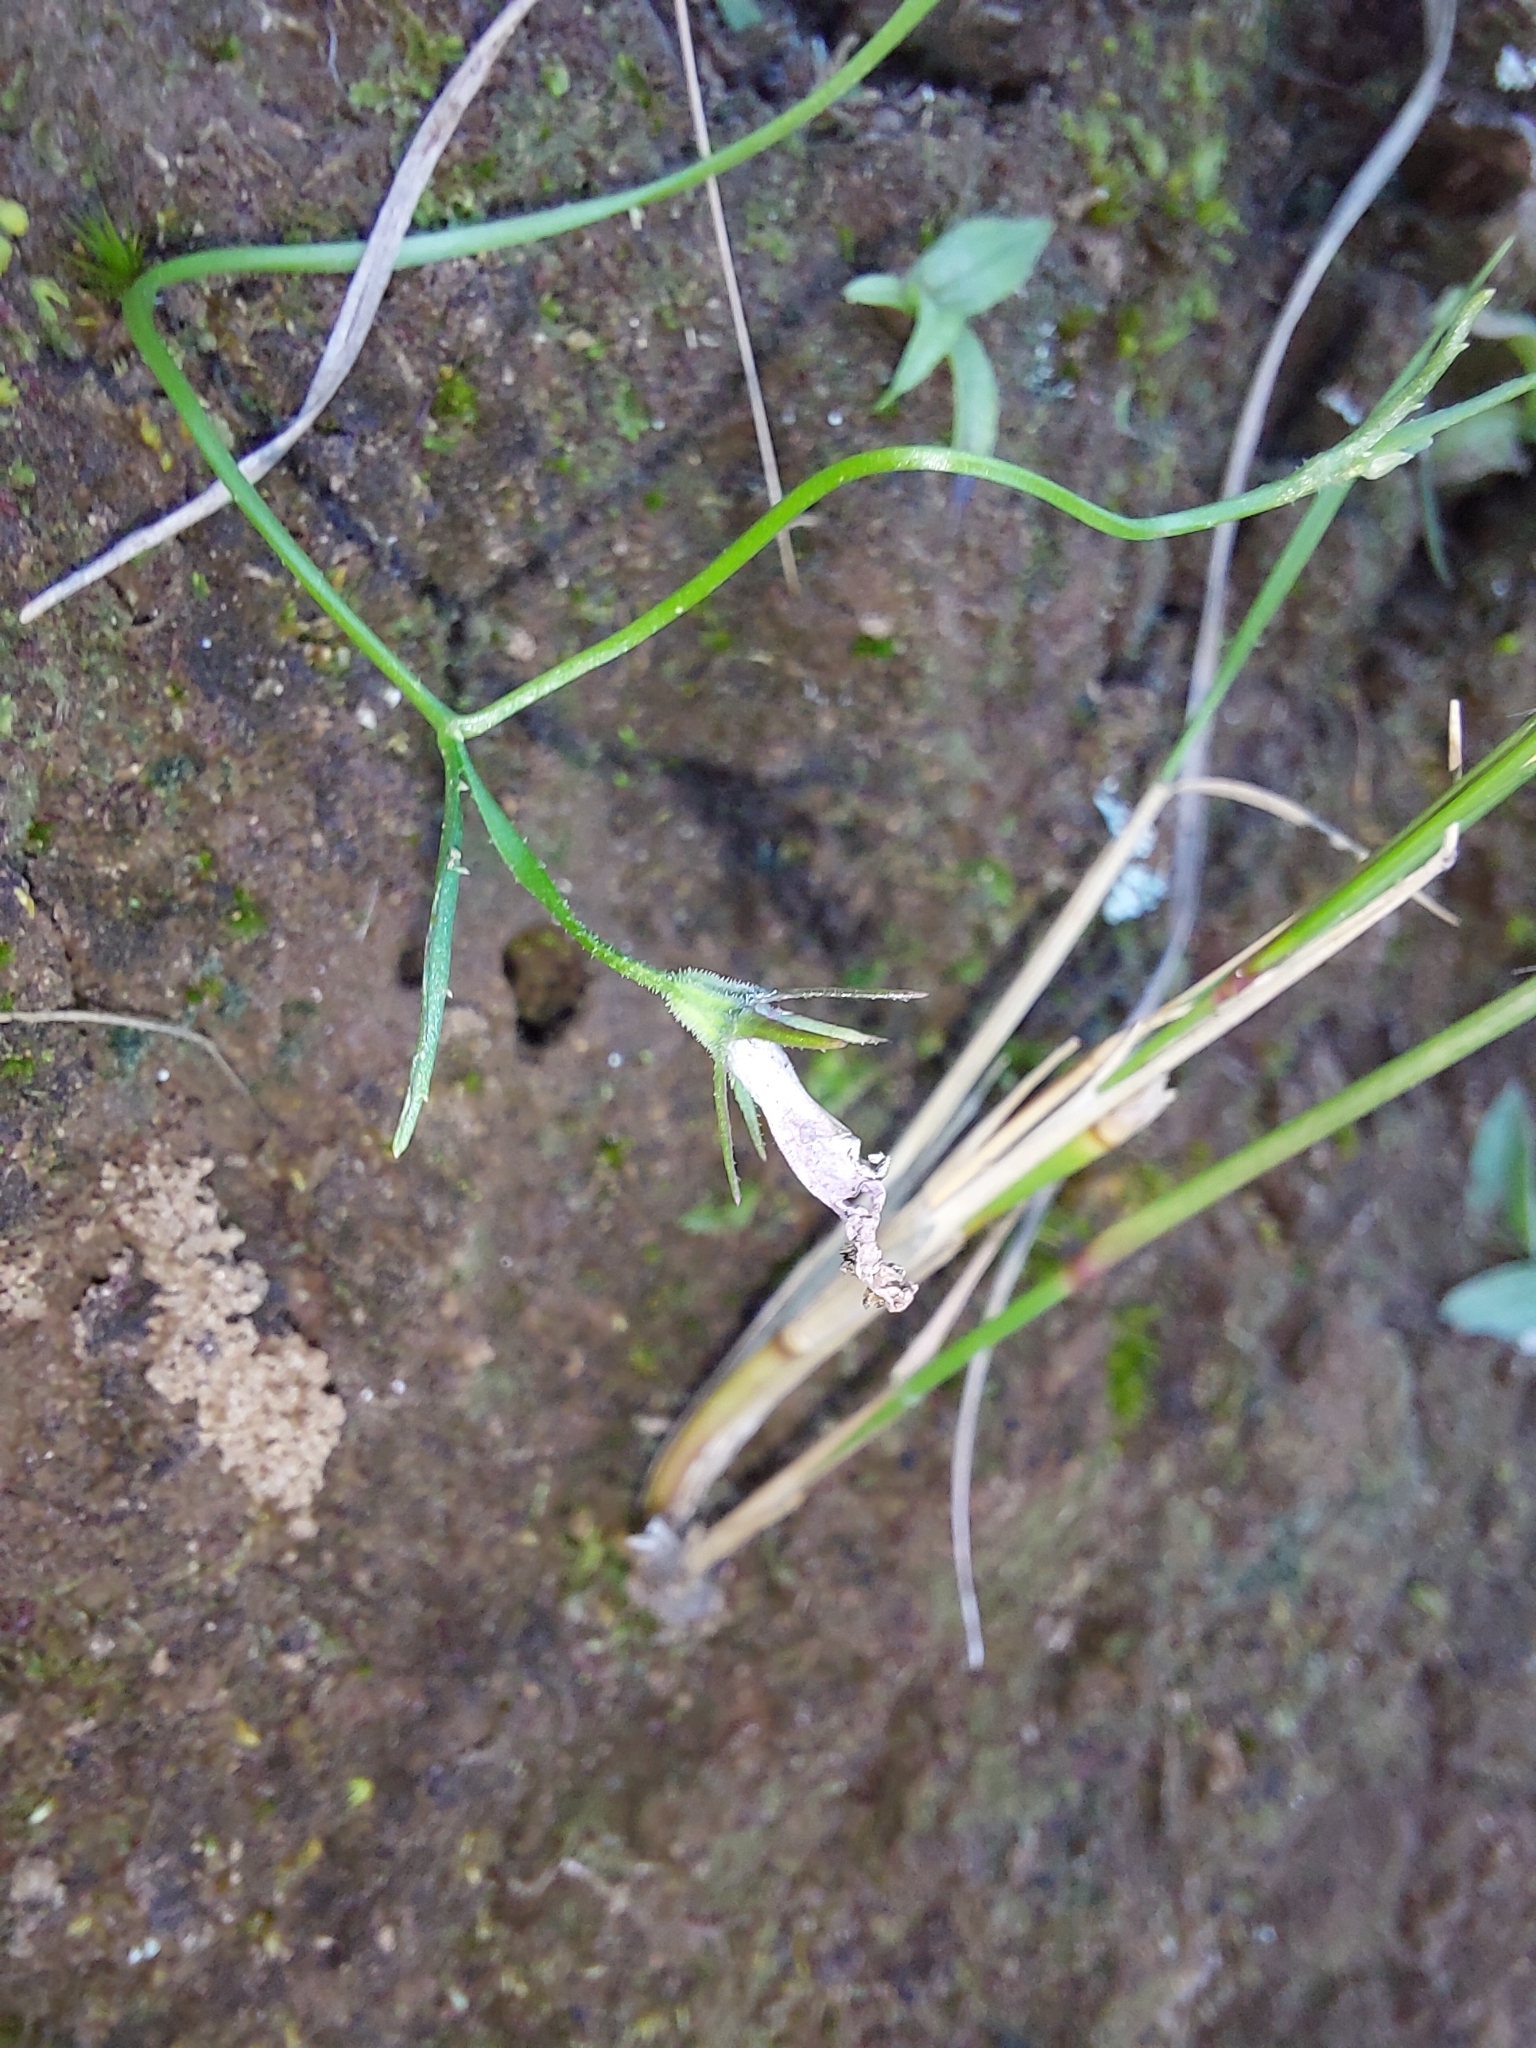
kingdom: Plantae
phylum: Tracheophyta
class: Magnoliopsida
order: Asterales
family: Campanulaceae
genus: Lobelia
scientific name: Lobelia flaccida
